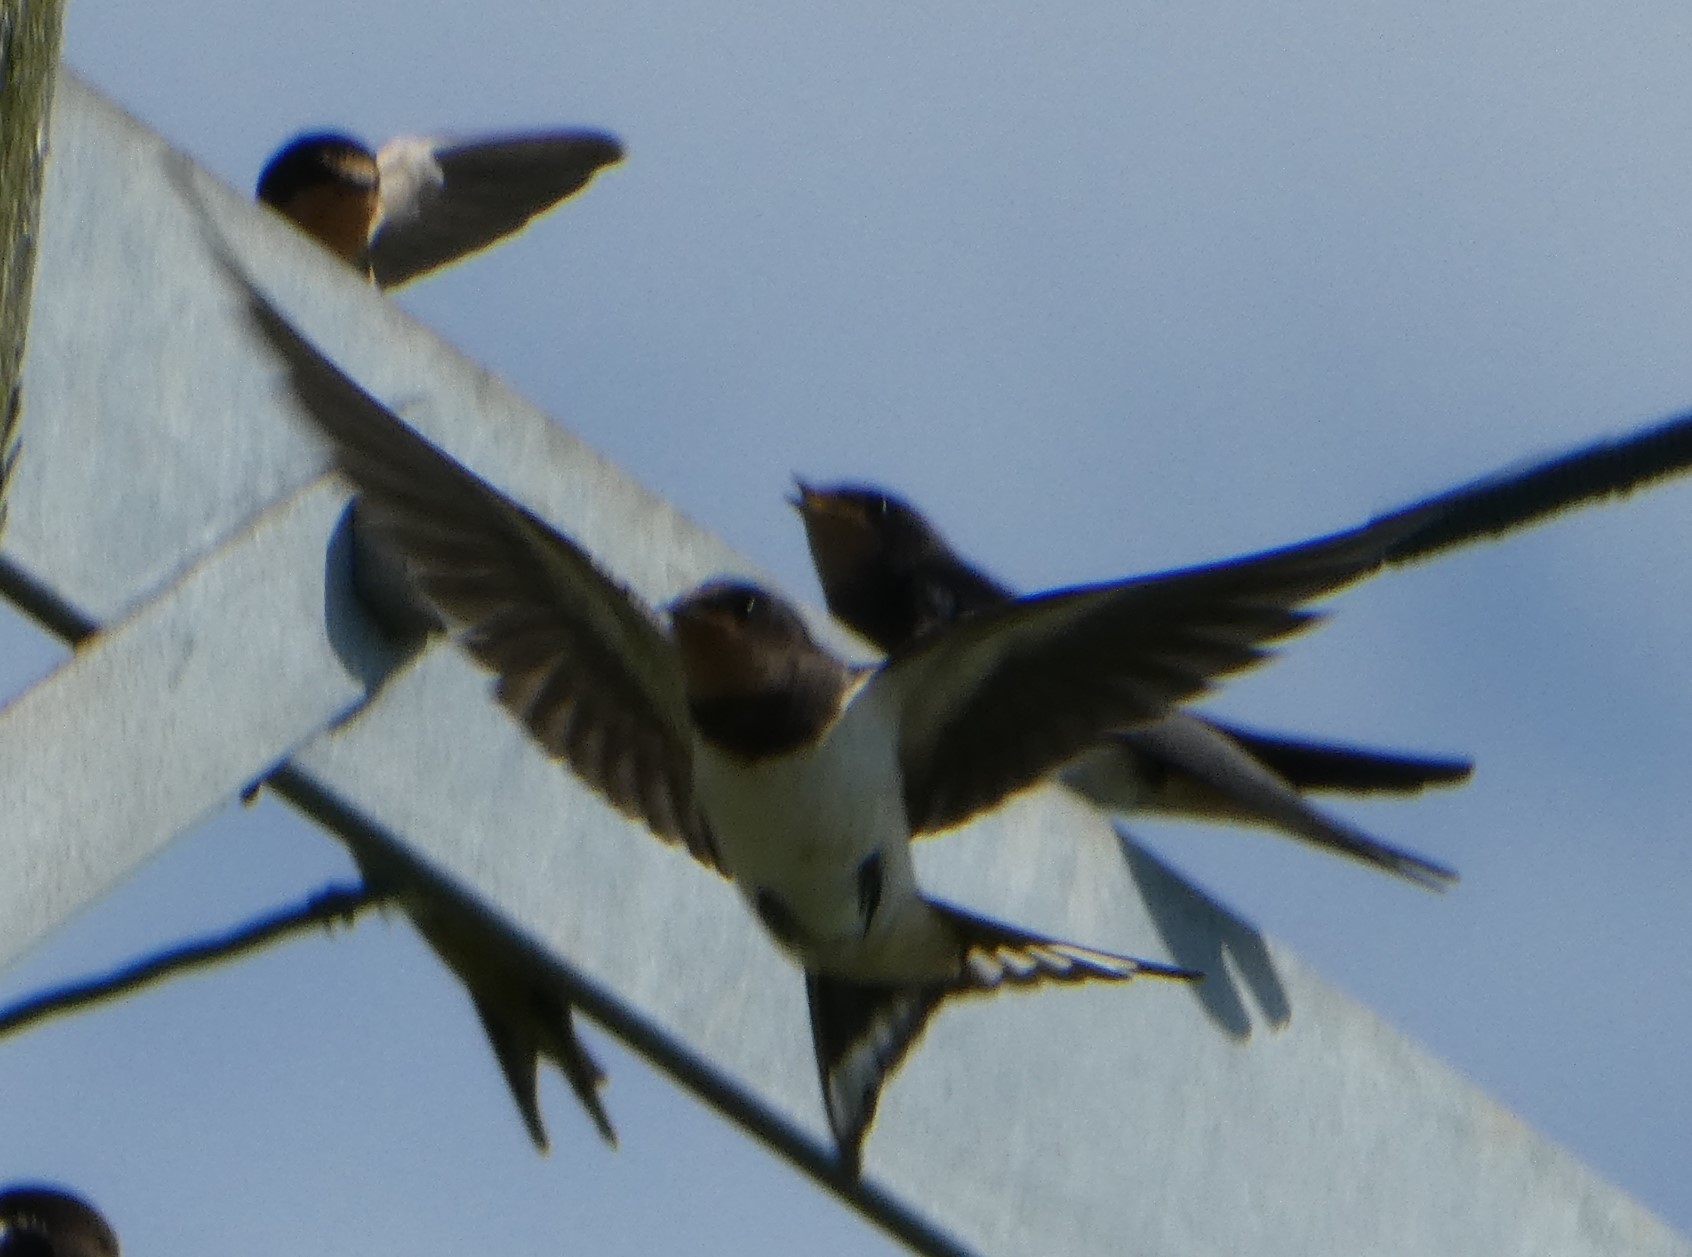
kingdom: Animalia
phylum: Chordata
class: Aves
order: Passeriformes
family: Hirundinidae
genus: Hirundo
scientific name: Hirundo rustica
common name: Barn swallow
